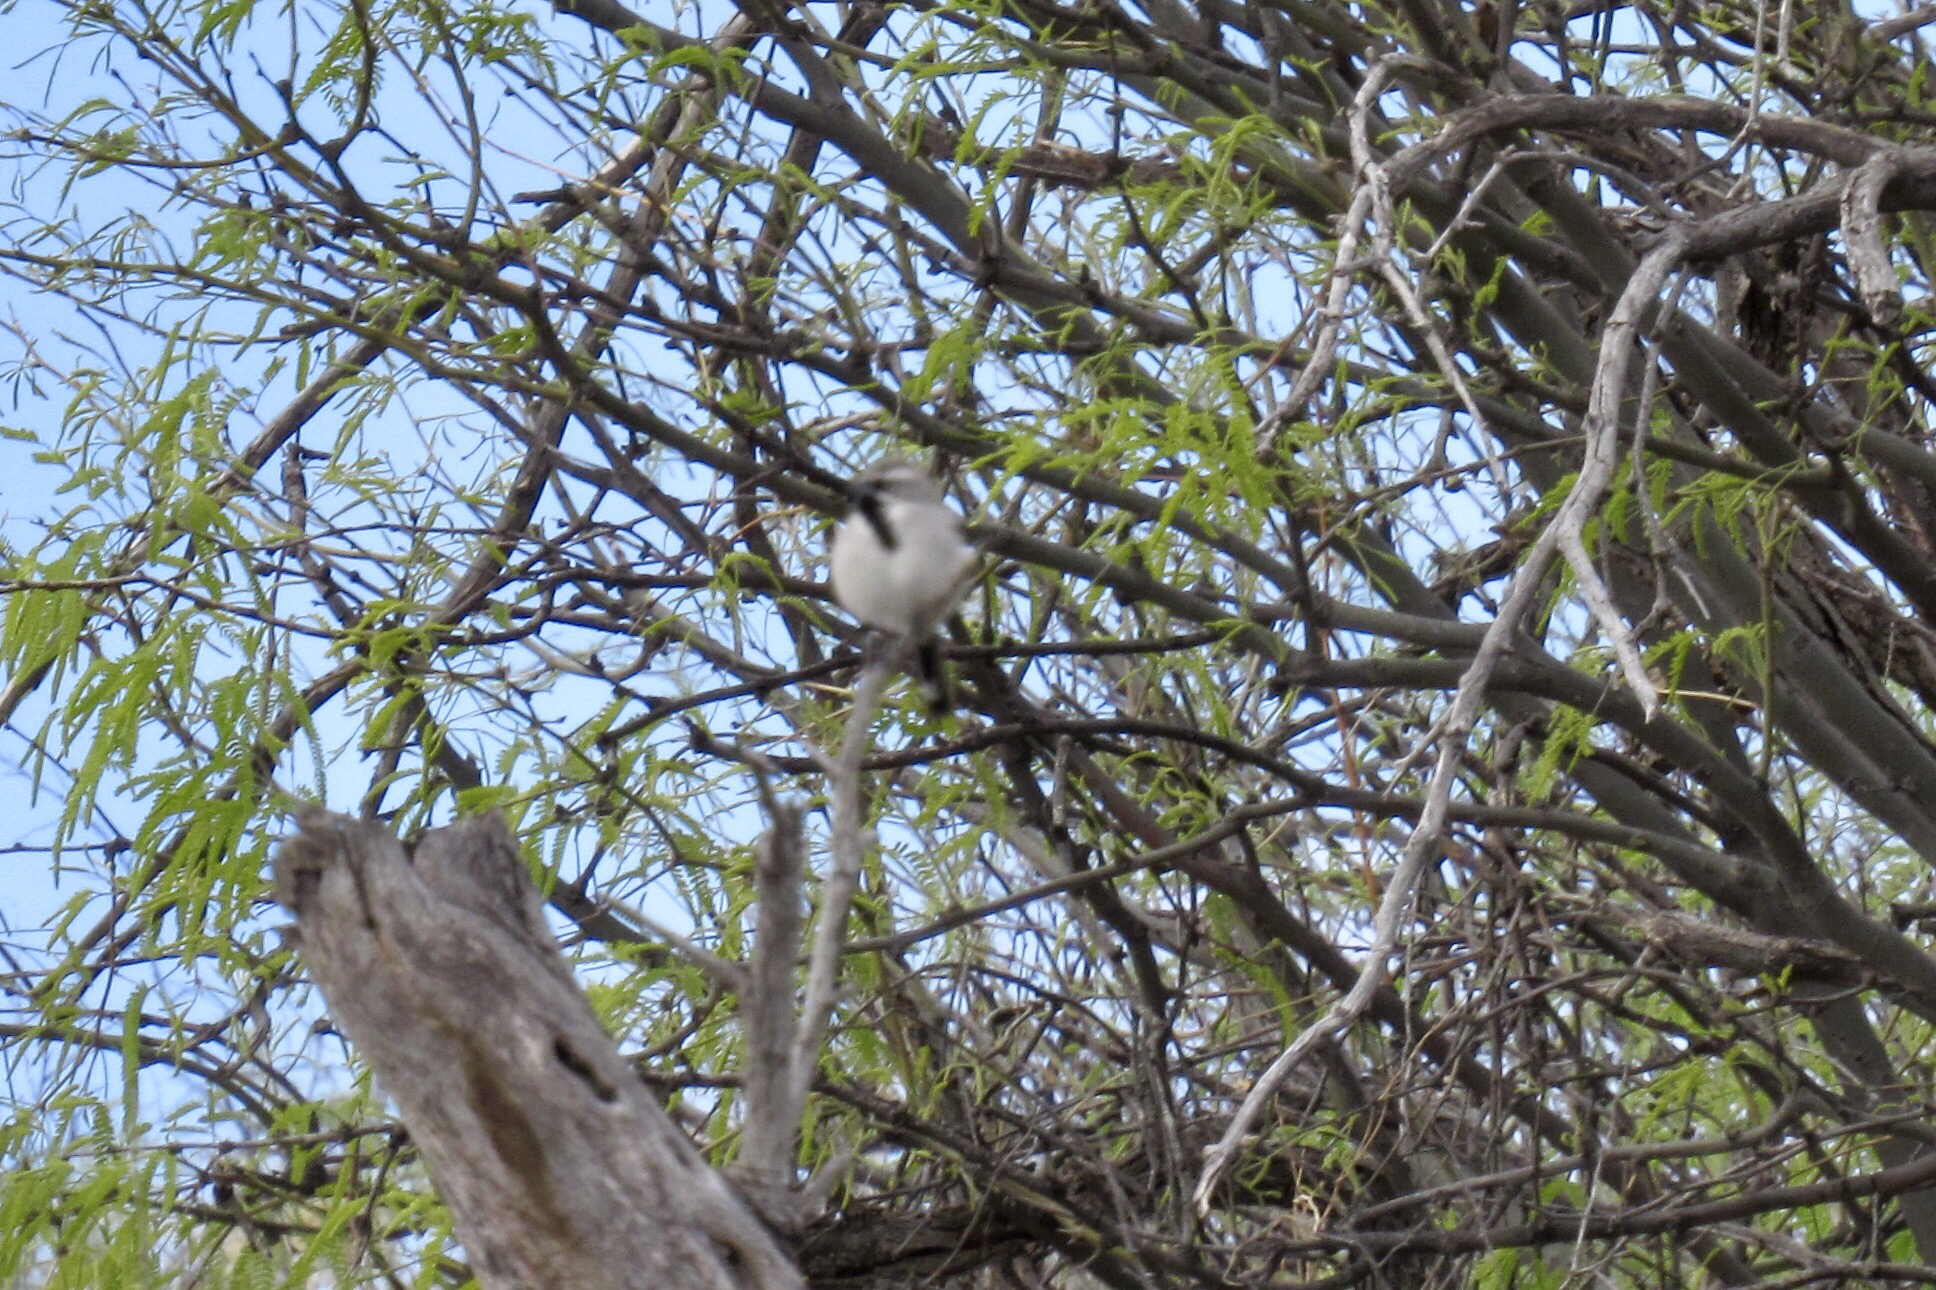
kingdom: Animalia
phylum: Chordata
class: Aves
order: Passeriformes
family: Passerellidae
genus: Amphispiza
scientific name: Amphispiza bilineata
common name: Black-throated sparrow
